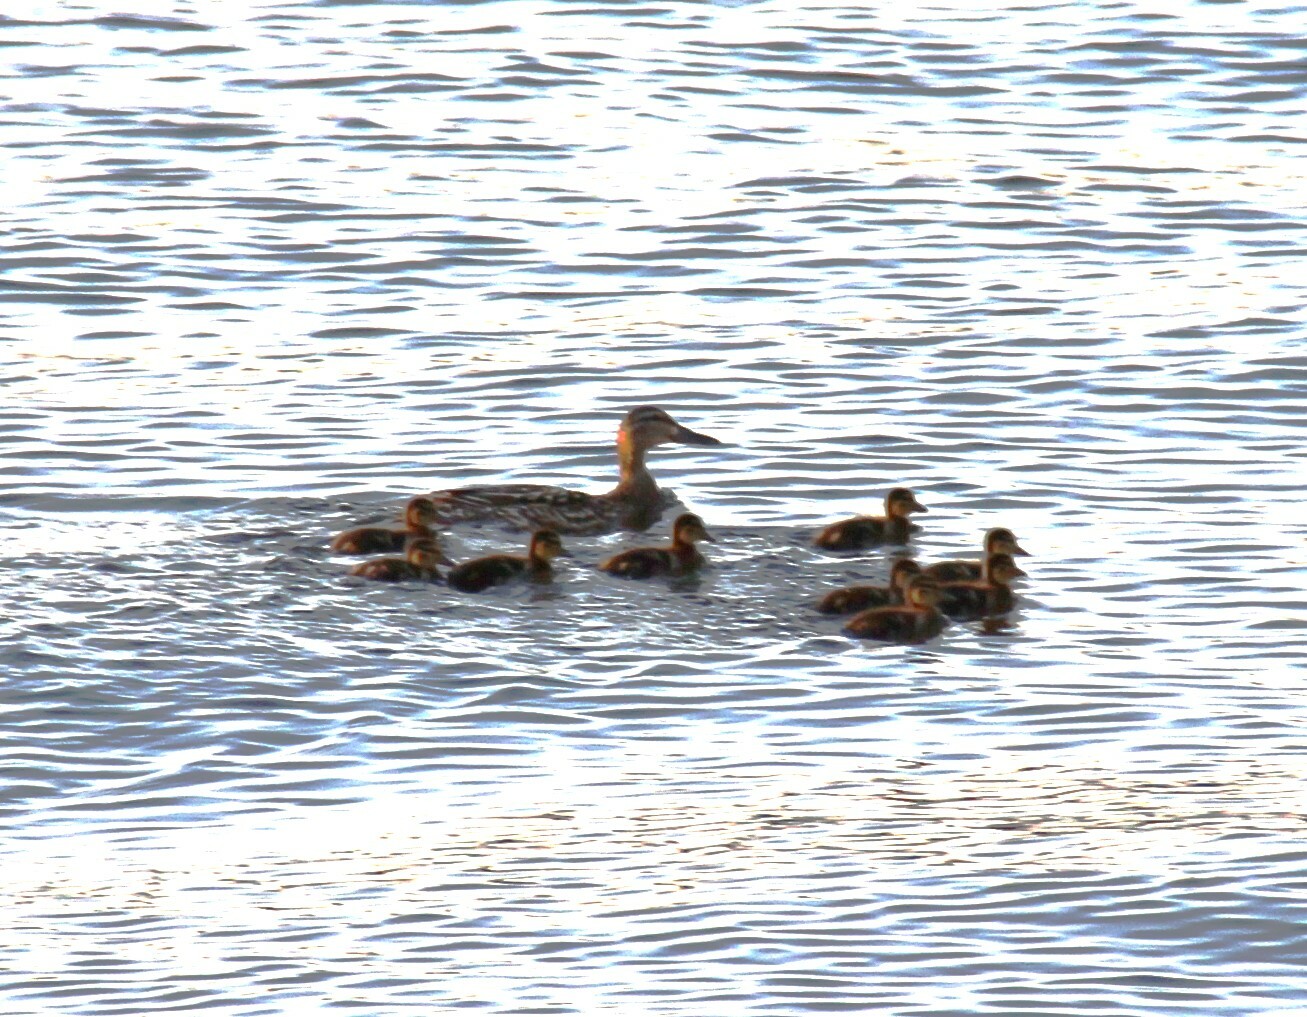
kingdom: Animalia
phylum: Chordata
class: Aves
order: Anseriformes
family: Anatidae
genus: Anas
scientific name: Anas platyrhynchos
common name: Mallard
